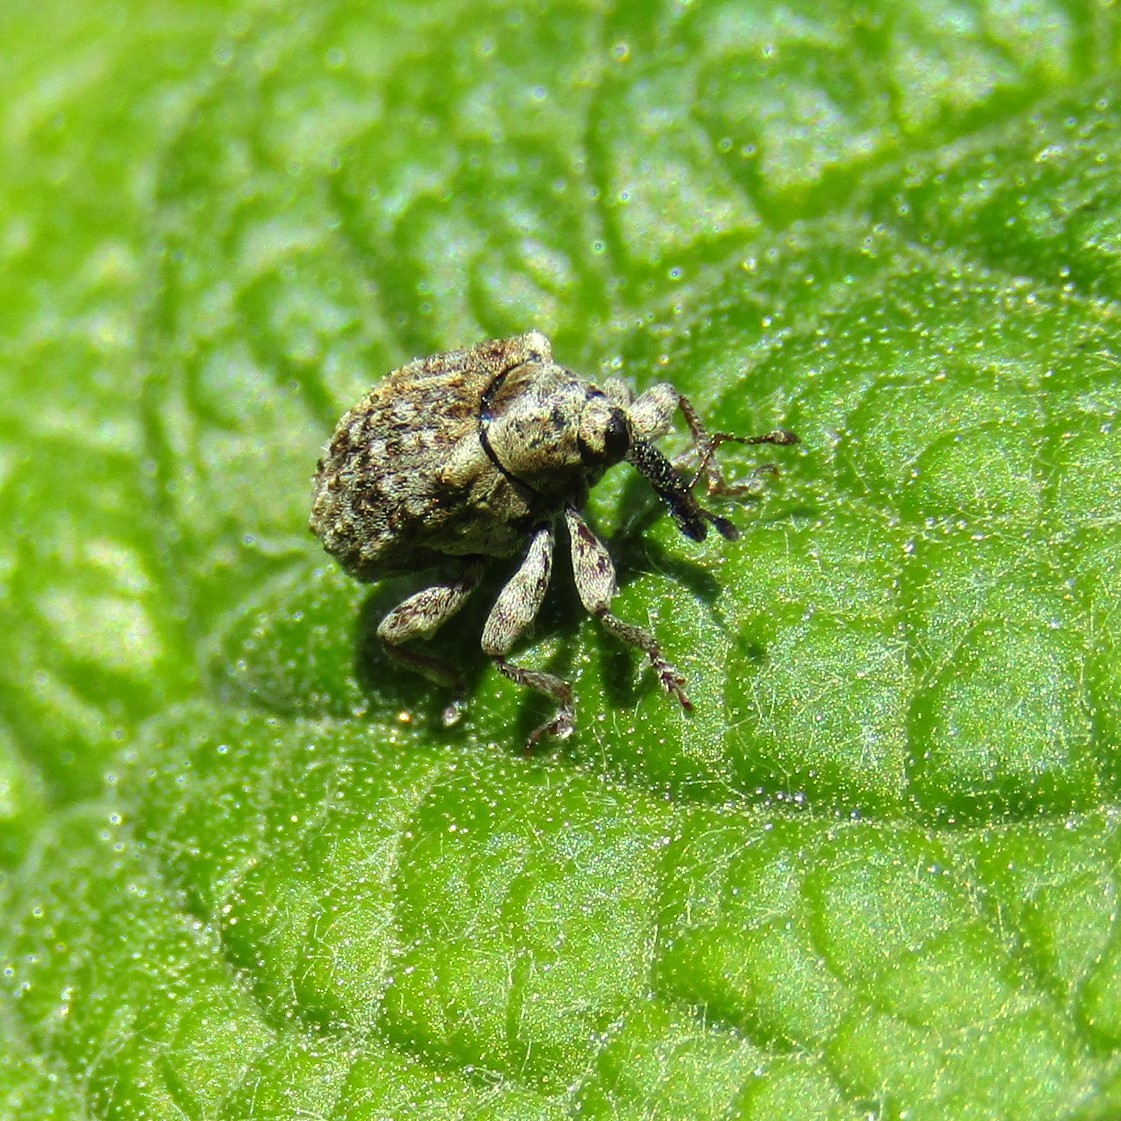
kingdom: Animalia
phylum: Arthropoda
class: Insecta
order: Coleoptera
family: Curculionidae
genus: Cleopus
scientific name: Cleopus japonicus
